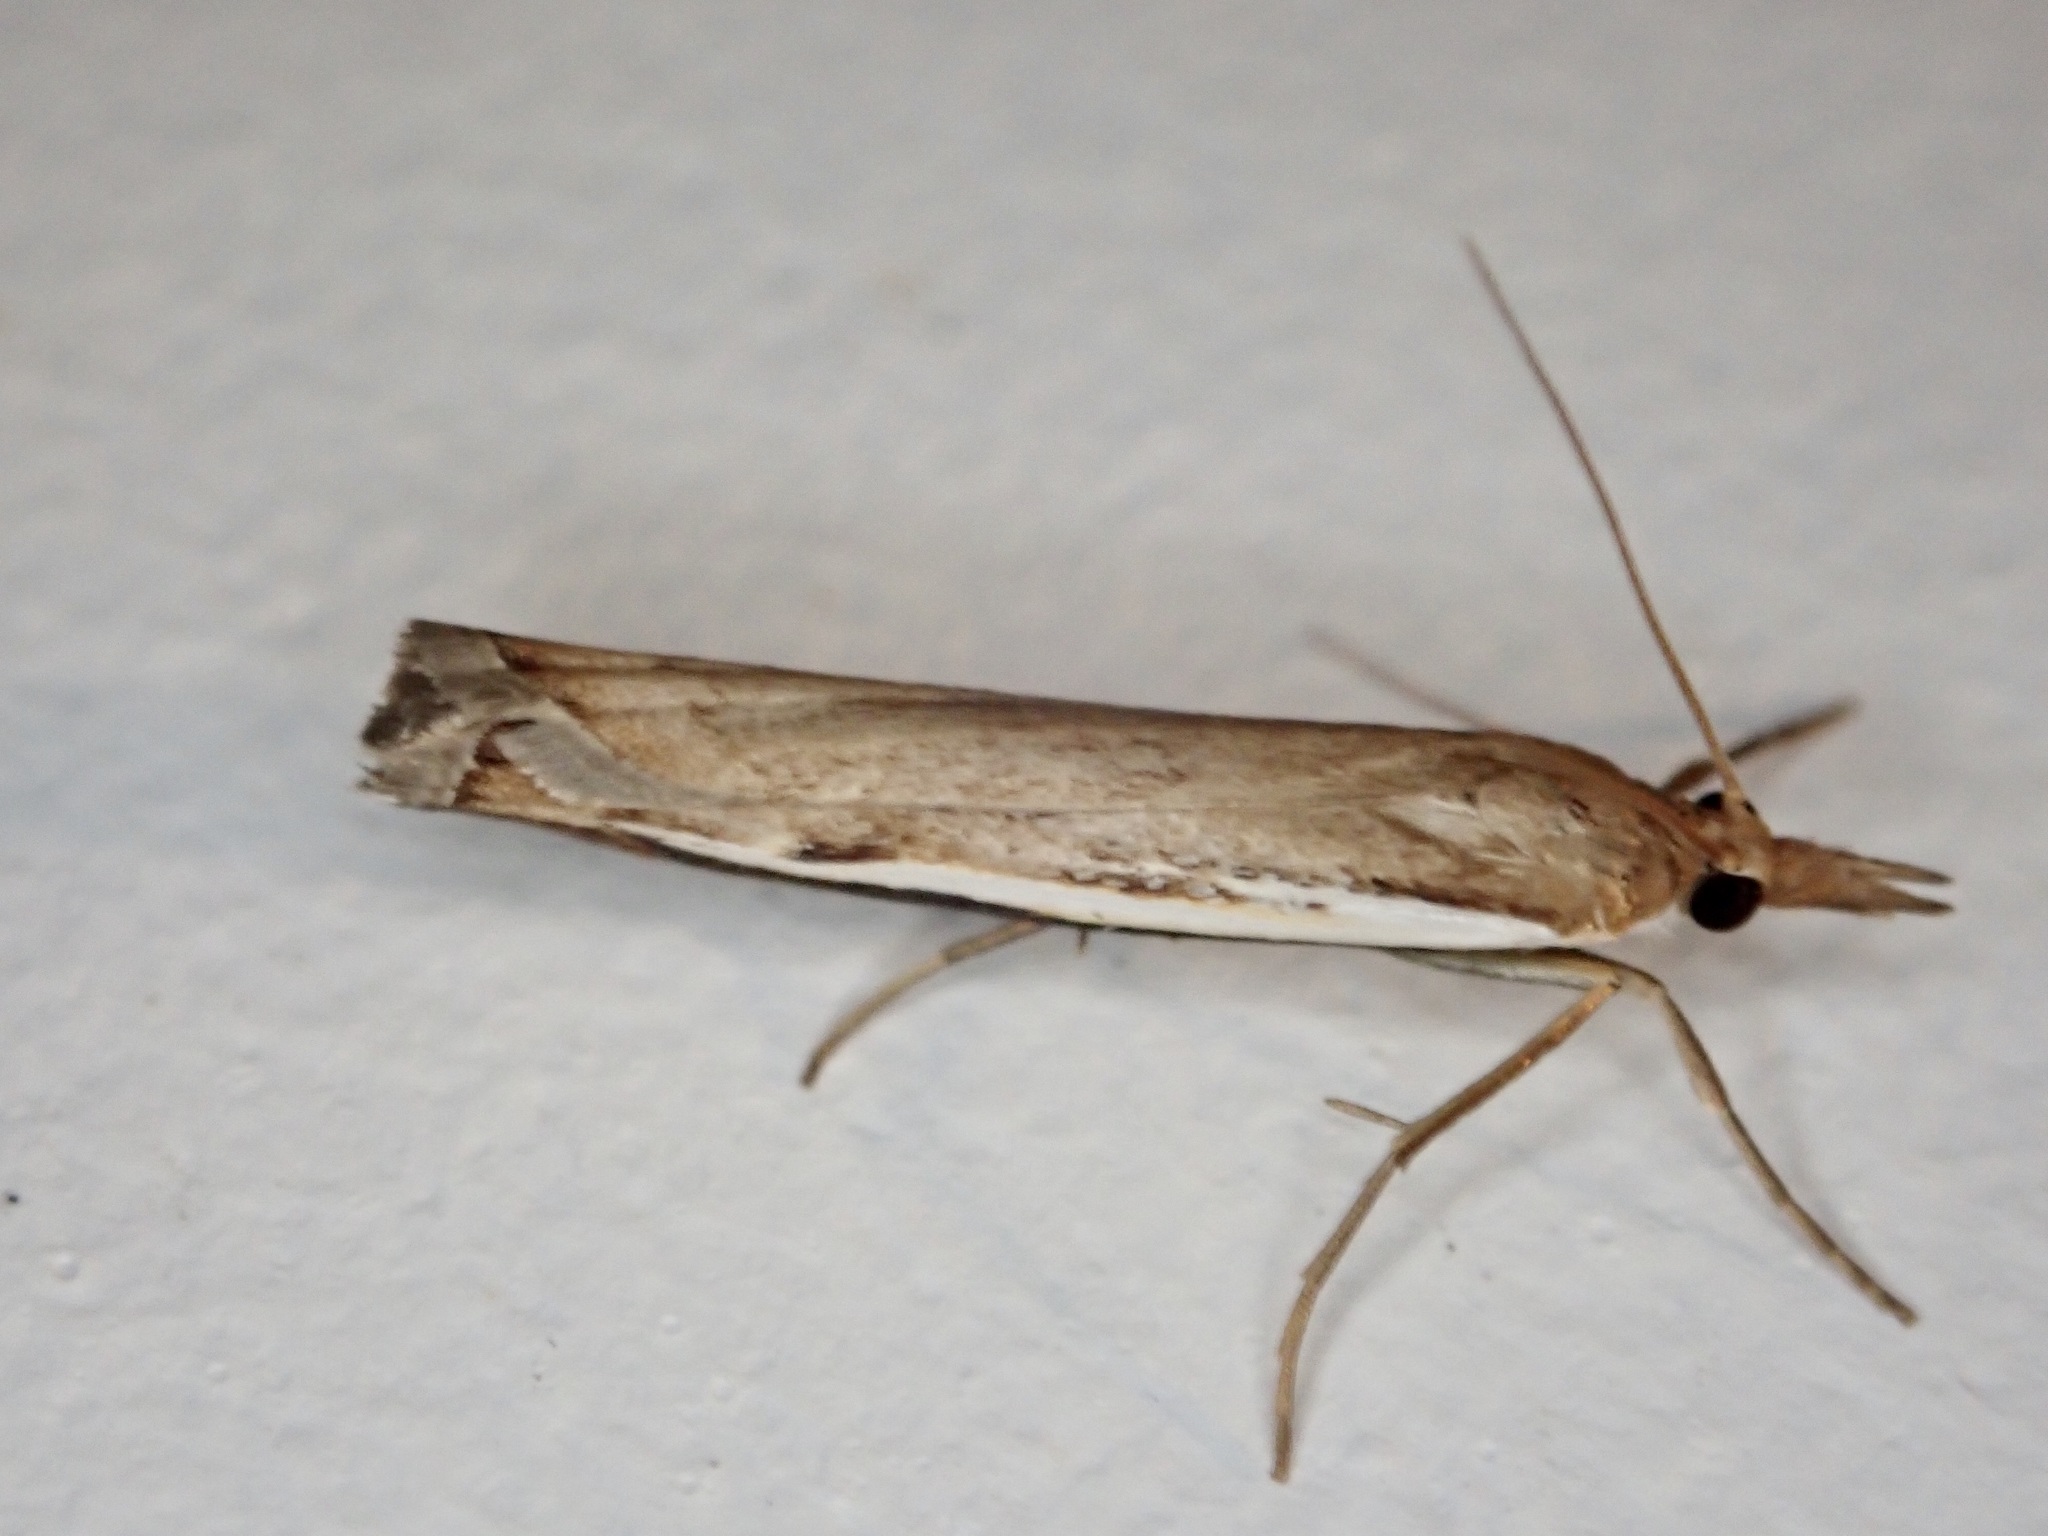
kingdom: Animalia
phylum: Arthropoda
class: Insecta
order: Lepidoptera
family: Crambidae
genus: Orocrambus
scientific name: Orocrambus flexuosellus
